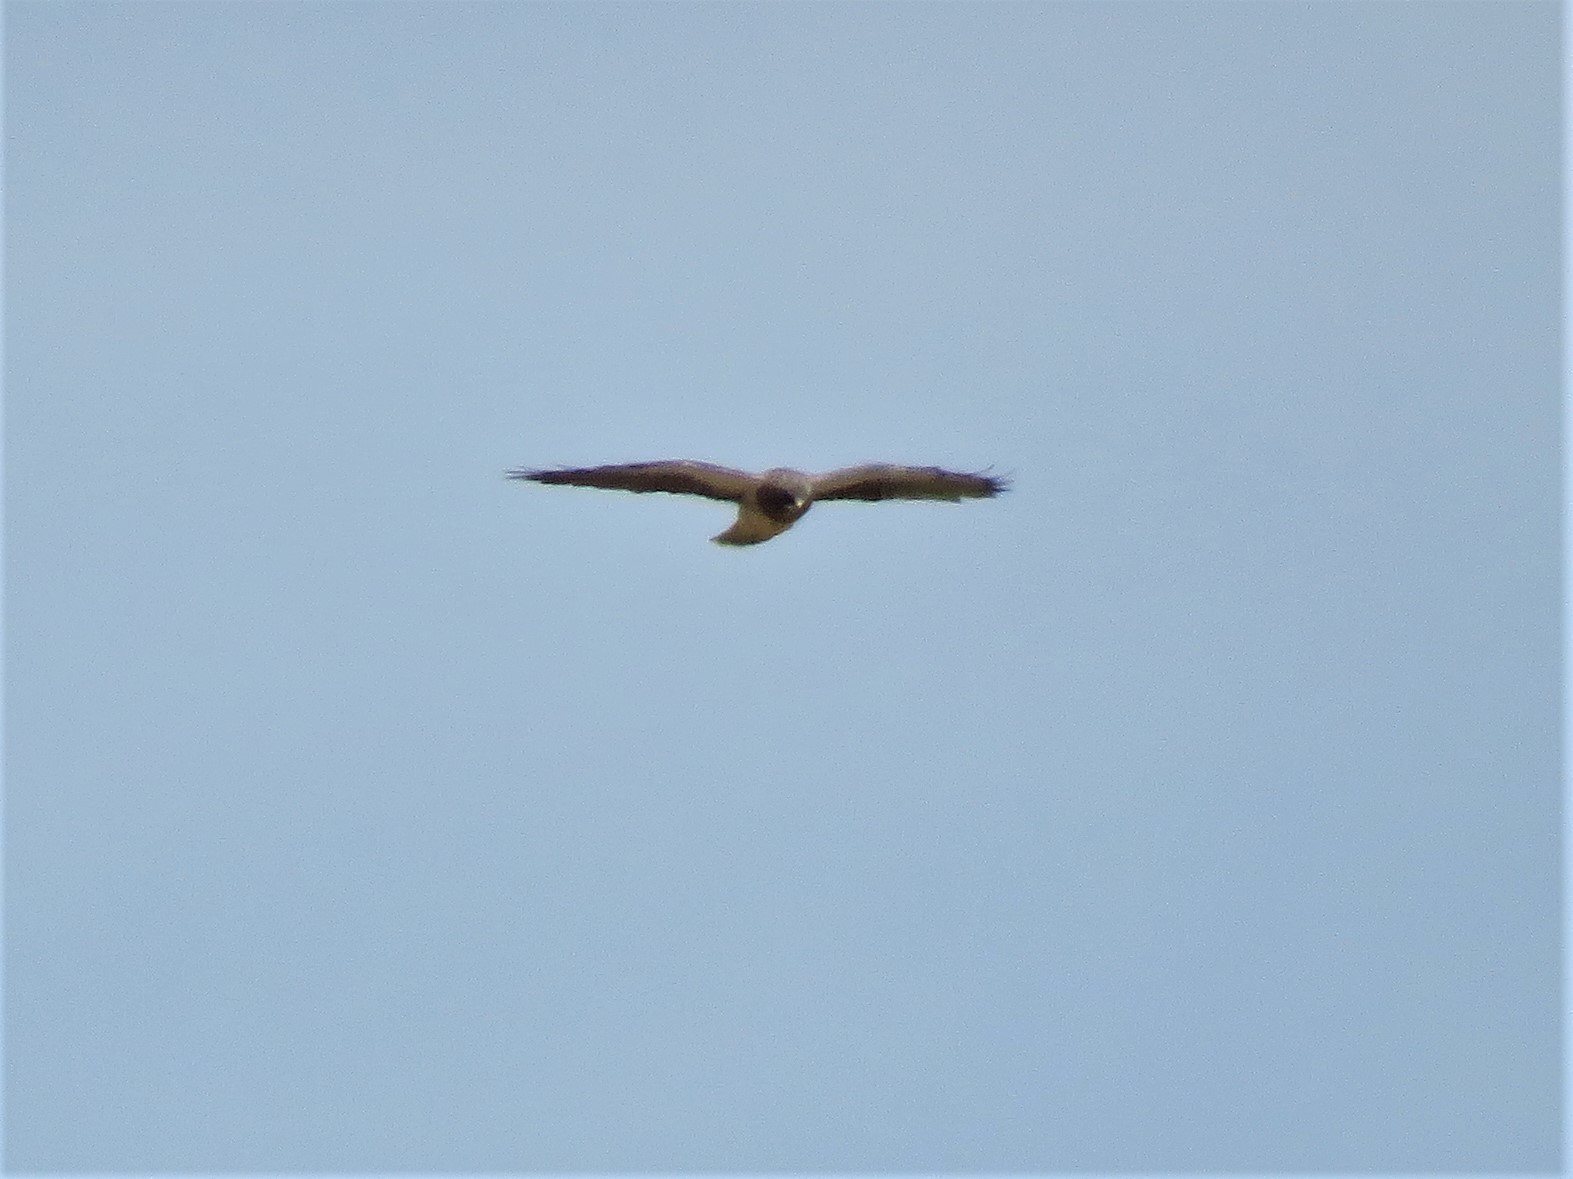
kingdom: Animalia
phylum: Chordata
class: Aves
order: Accipitriformes
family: Accipitridae
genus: Buteo
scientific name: Buteo swainsoni
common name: Swainson's hawk
